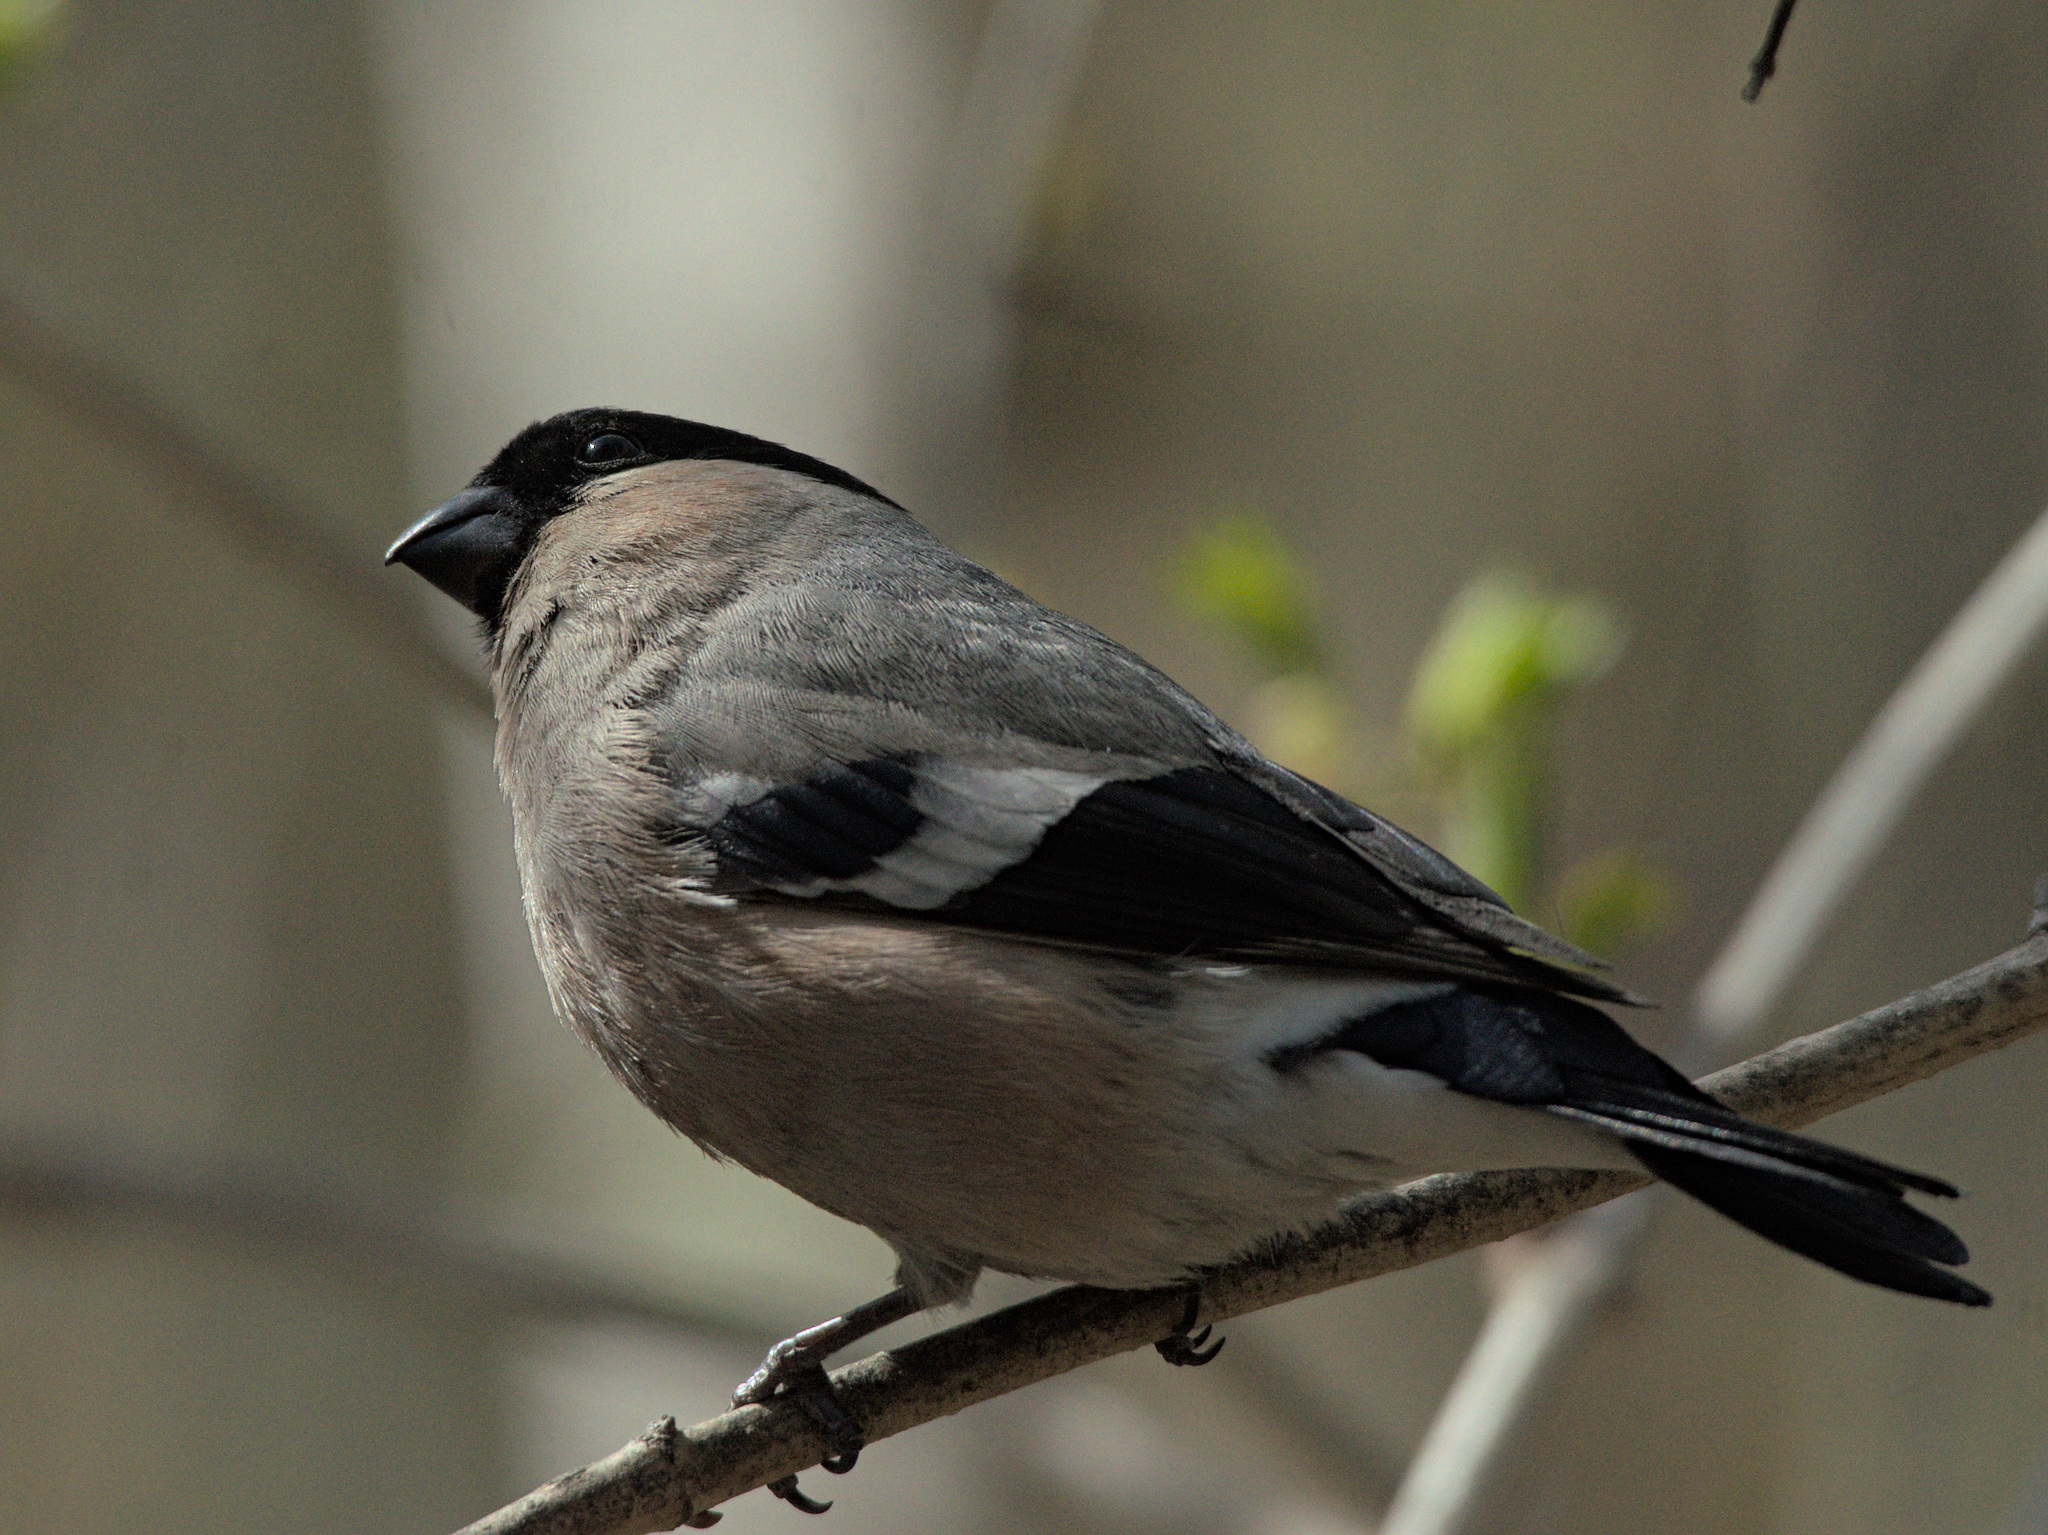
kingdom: Animalia
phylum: Chordata
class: Aves
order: Passeriformes
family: Fringillidae
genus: Pyrrhula
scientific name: Pyrrhula pyrrhula
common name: Eurasian bullfinch
